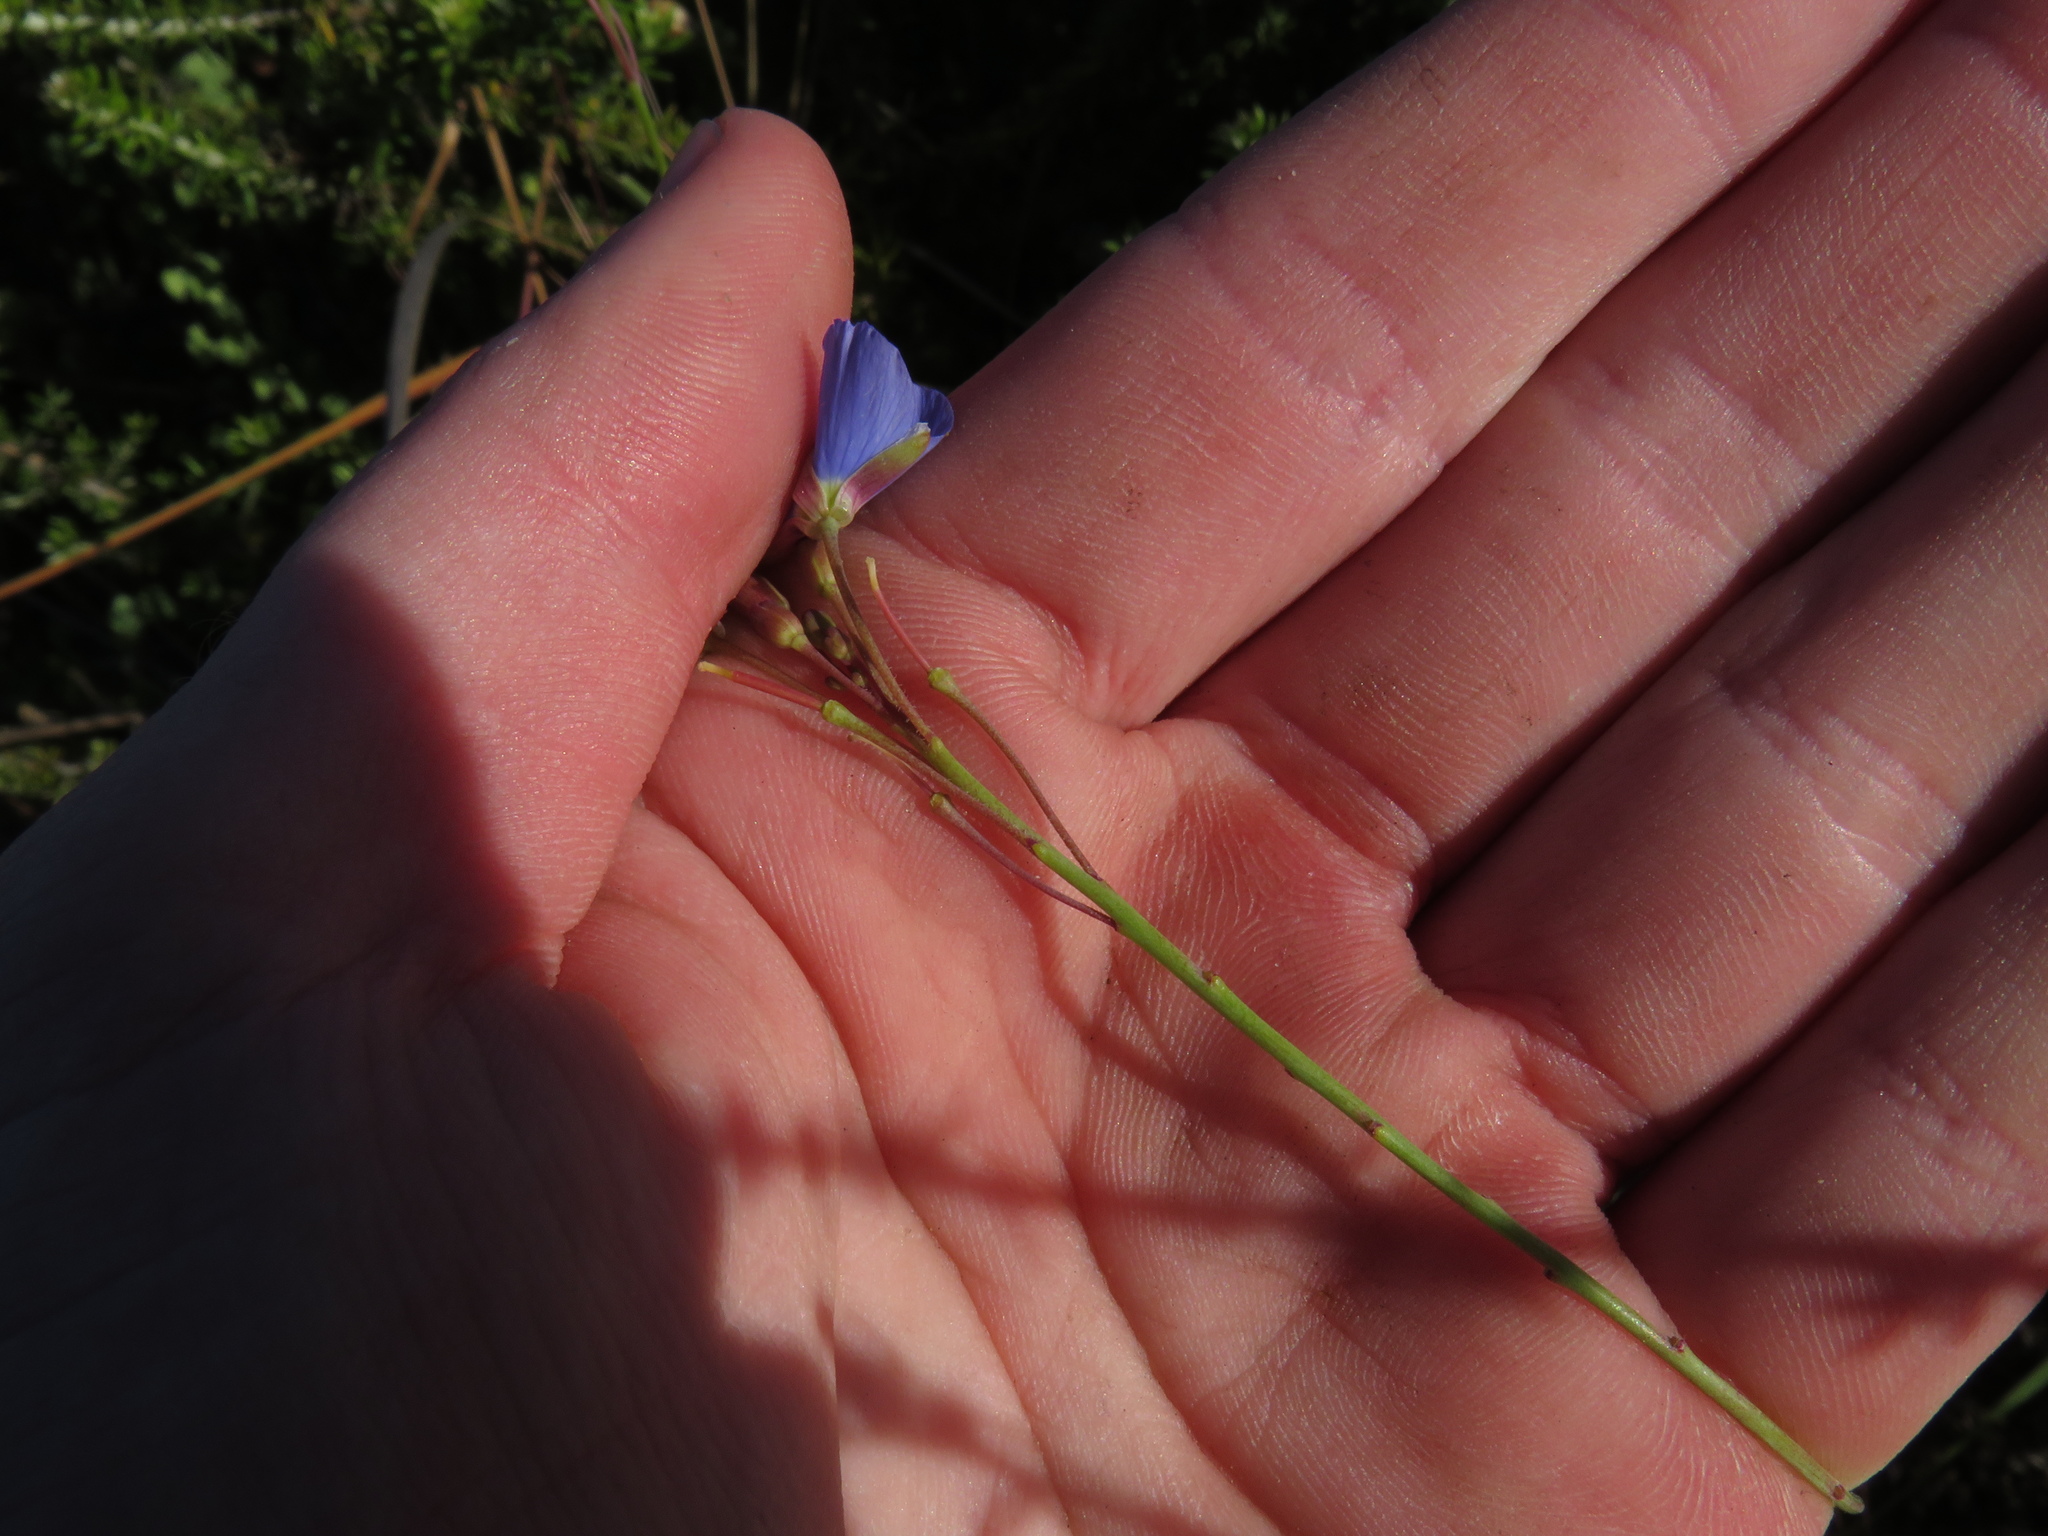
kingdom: Plantae
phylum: Tracheophyta
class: Magnoliopsida
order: Brassicales
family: Brassicaceae
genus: Heliophila
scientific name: Heliophila africana
